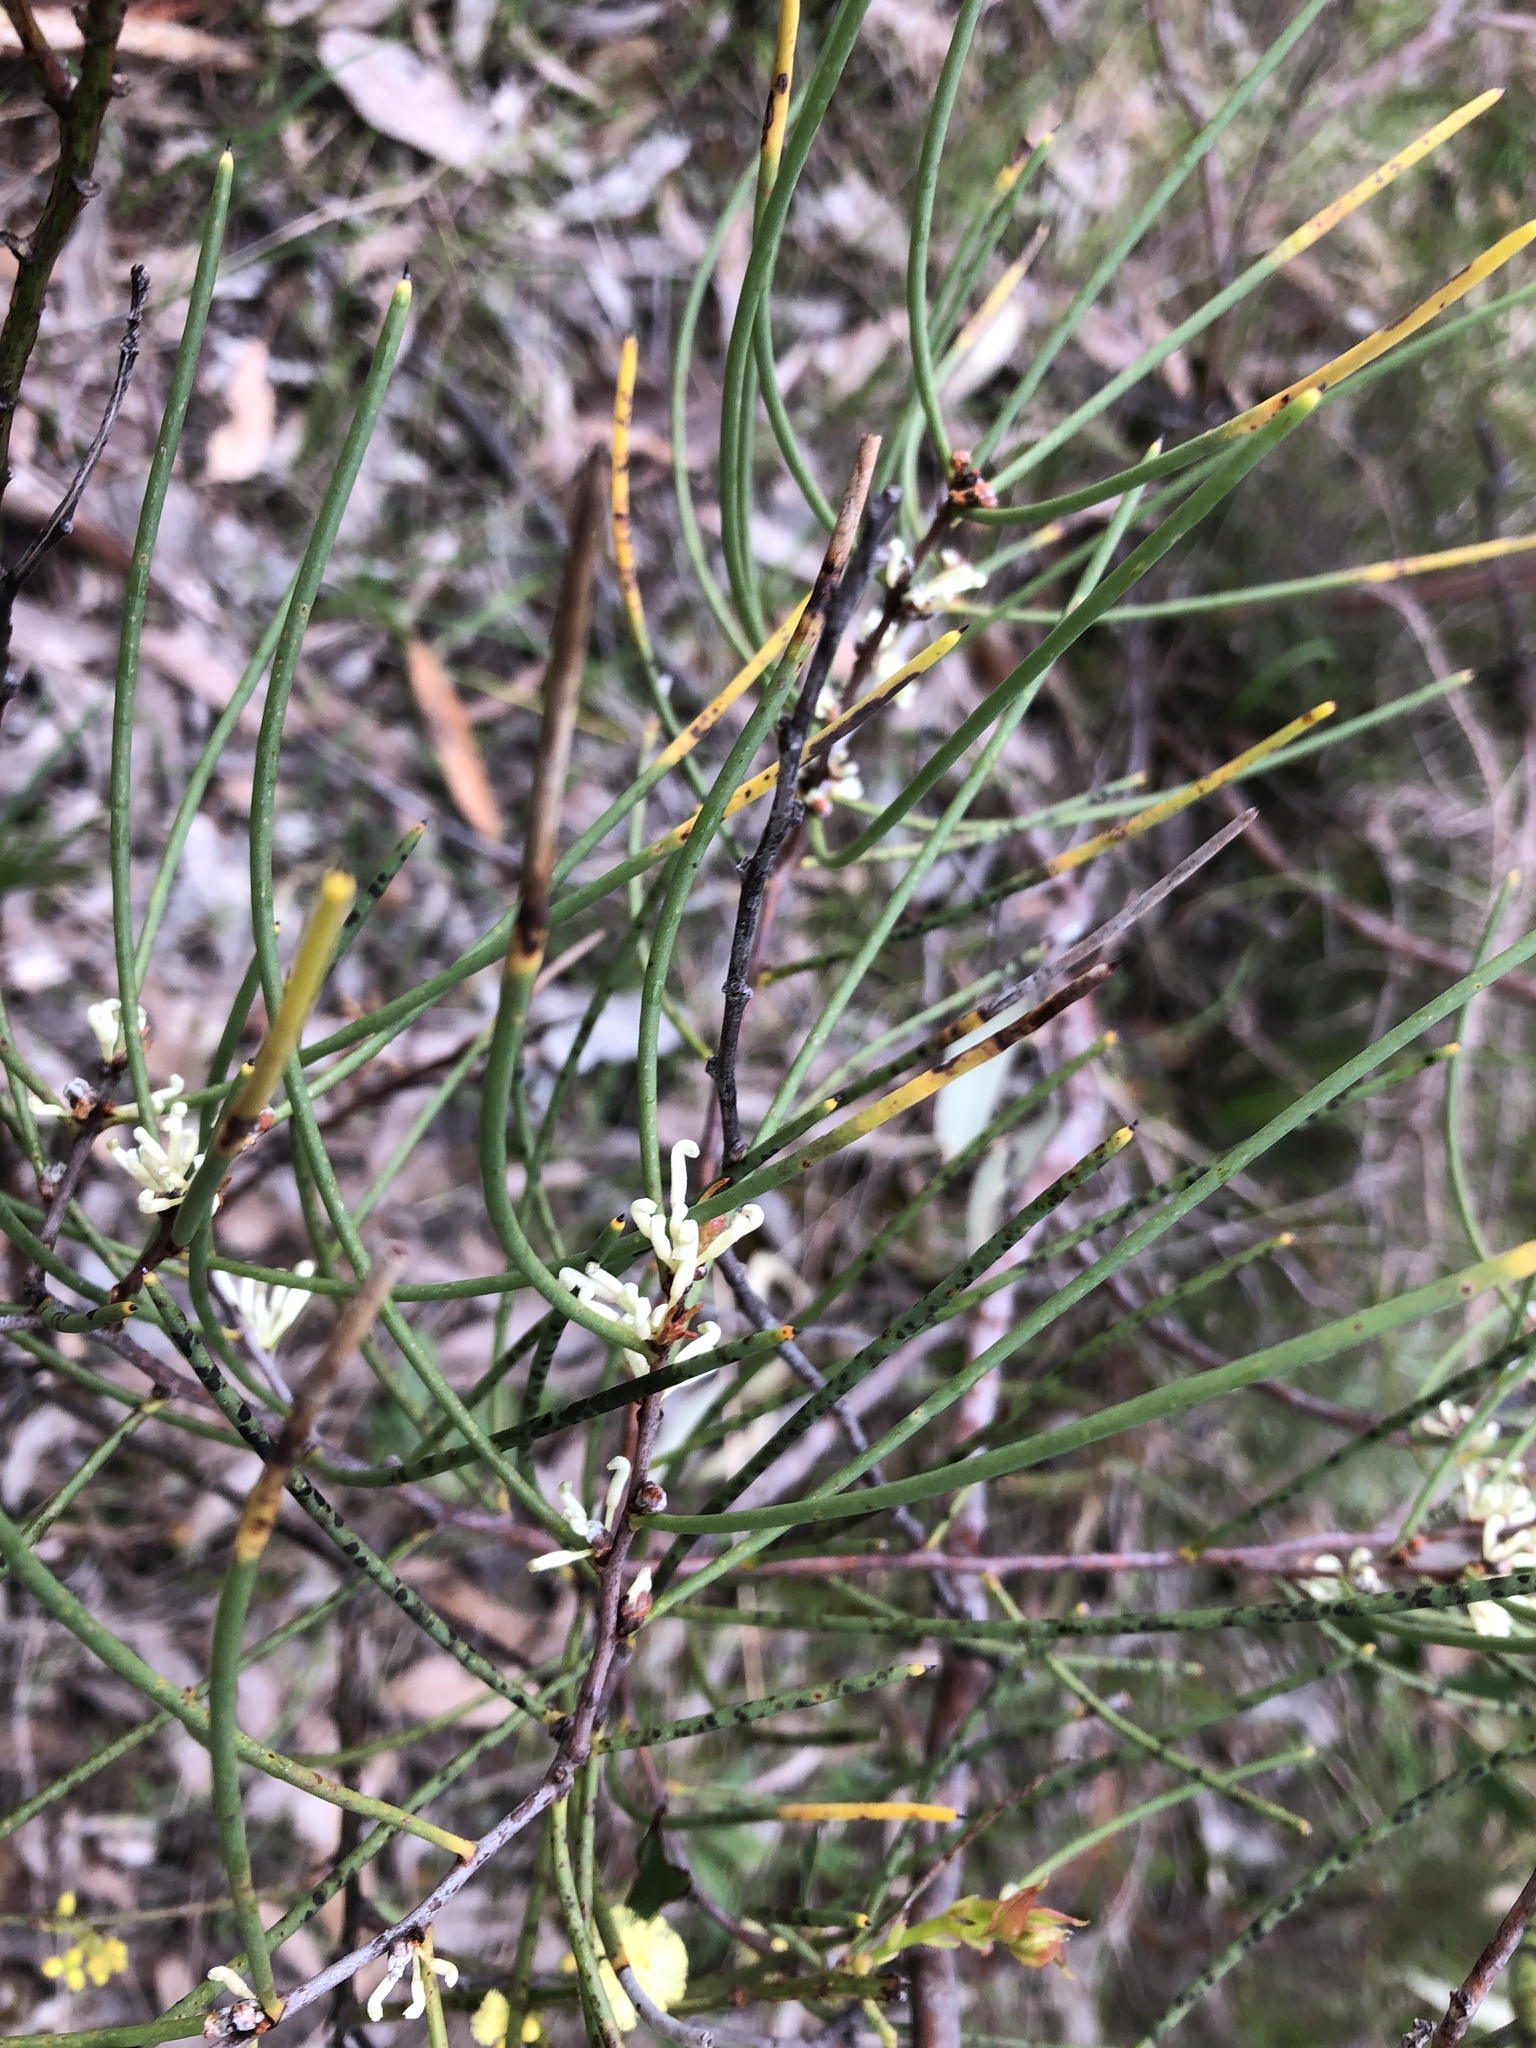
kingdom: Plantae
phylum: Tracheophyta
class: Magnoliopsida
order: Proteales
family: Proteaceae
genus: Hakea
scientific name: Hakea rostrata
